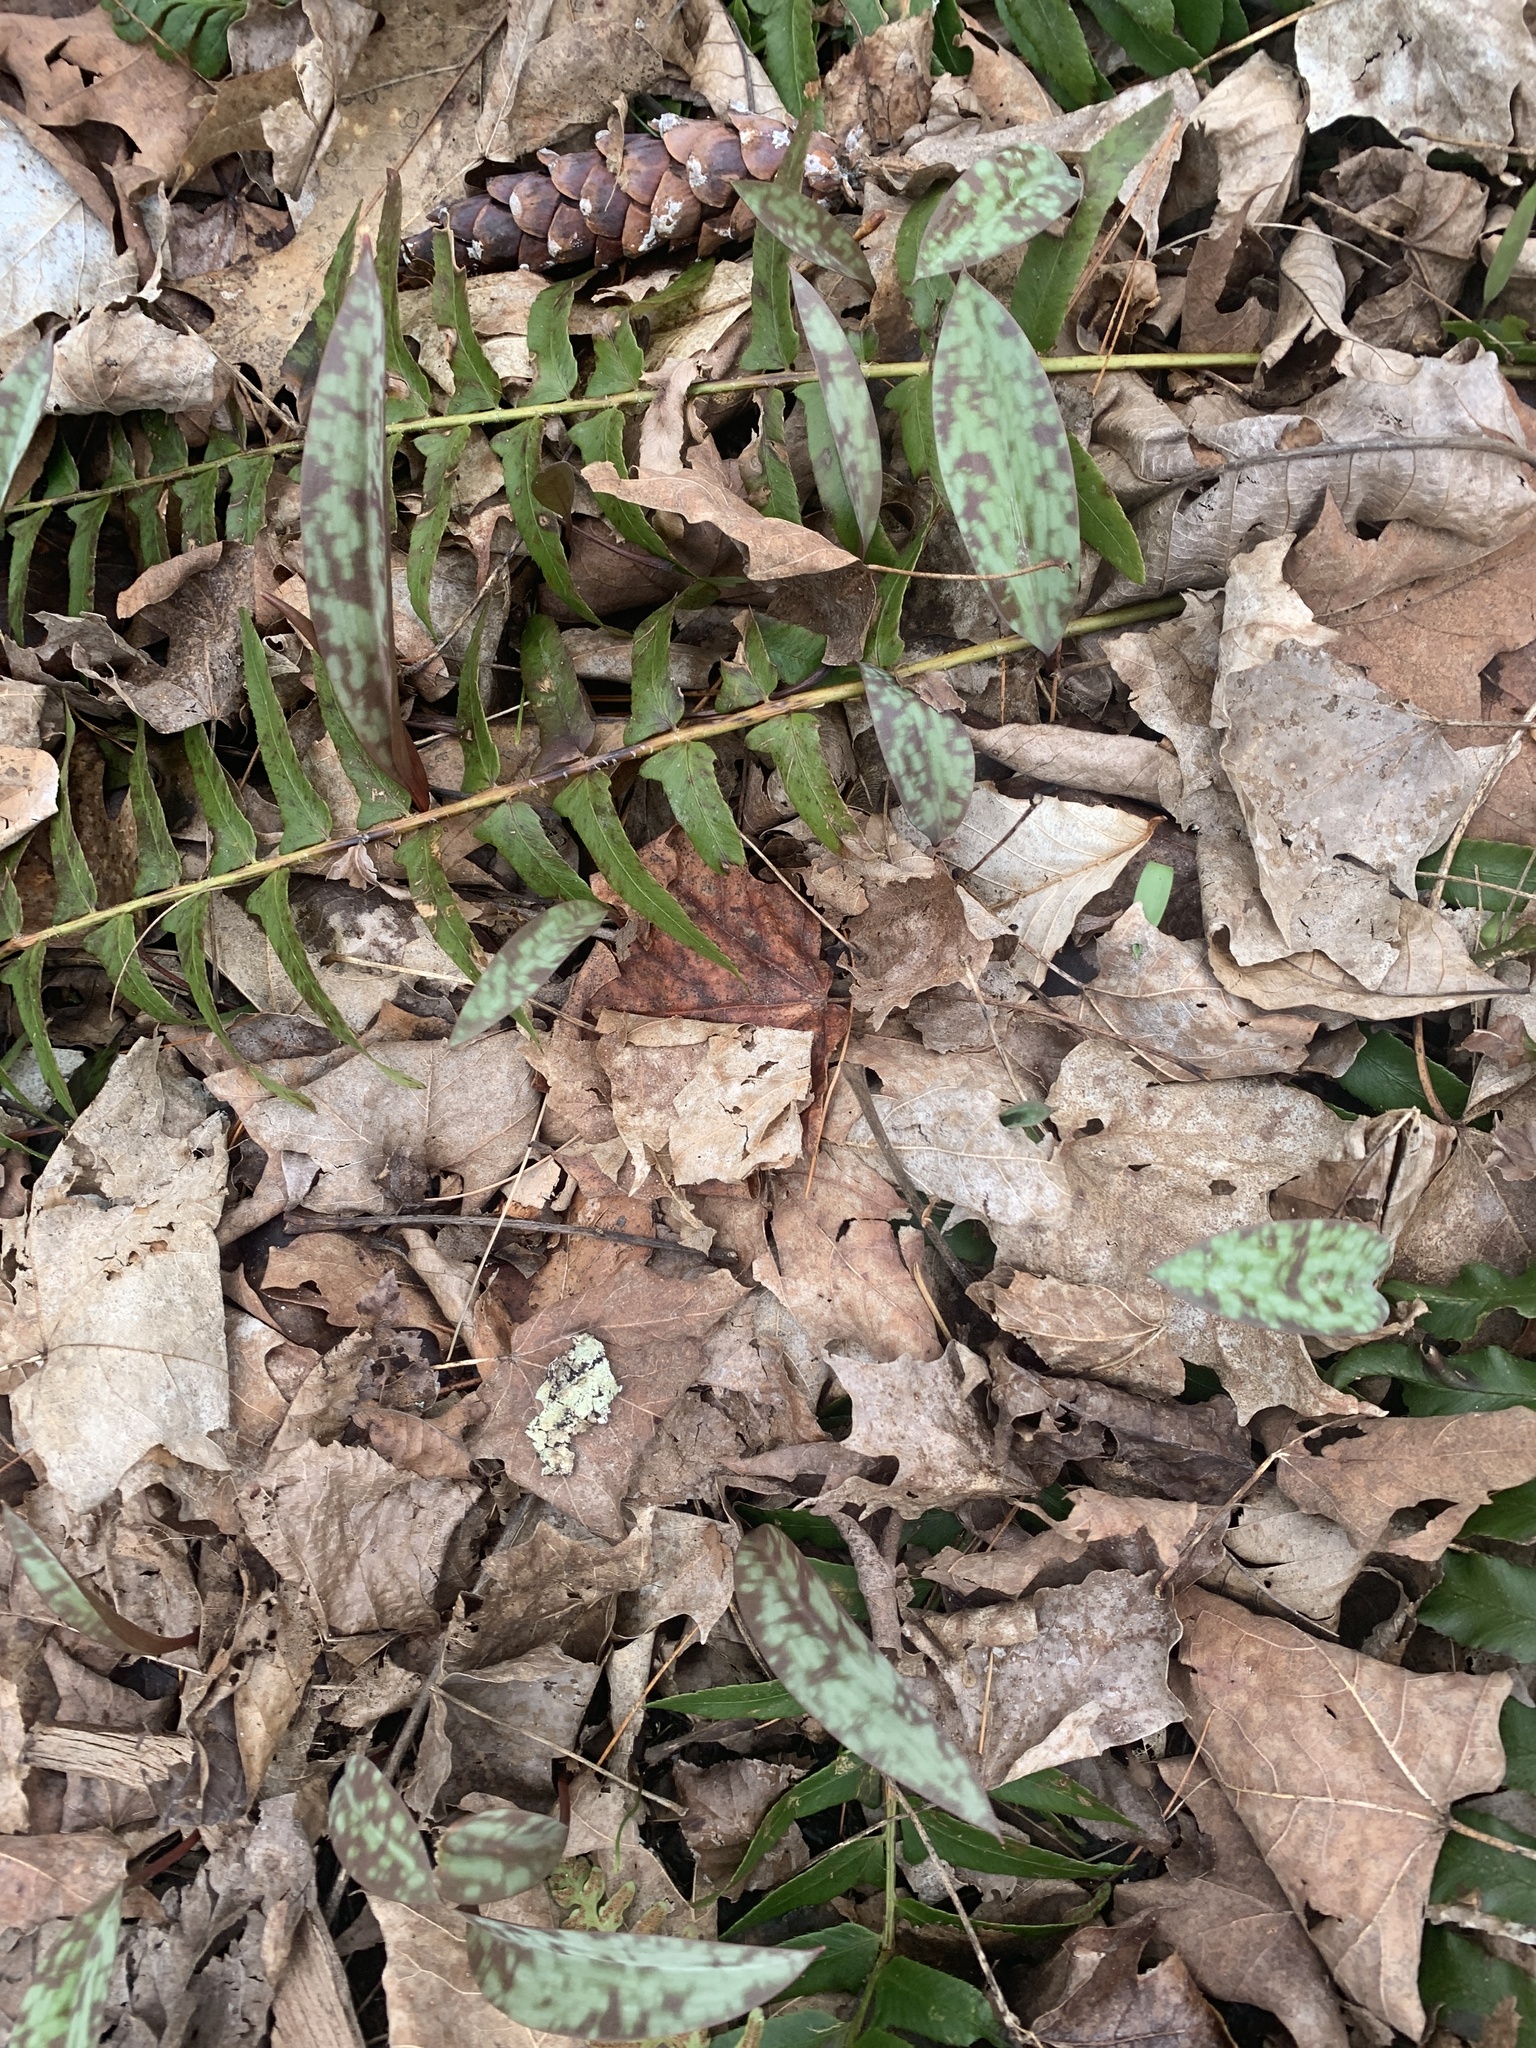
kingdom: Plantae
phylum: Tracheophyta
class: Liliopsida
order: Liliales
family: Liliaceae
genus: Erythronium
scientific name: Erythronium americanum
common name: Yellow adder's-tongue
